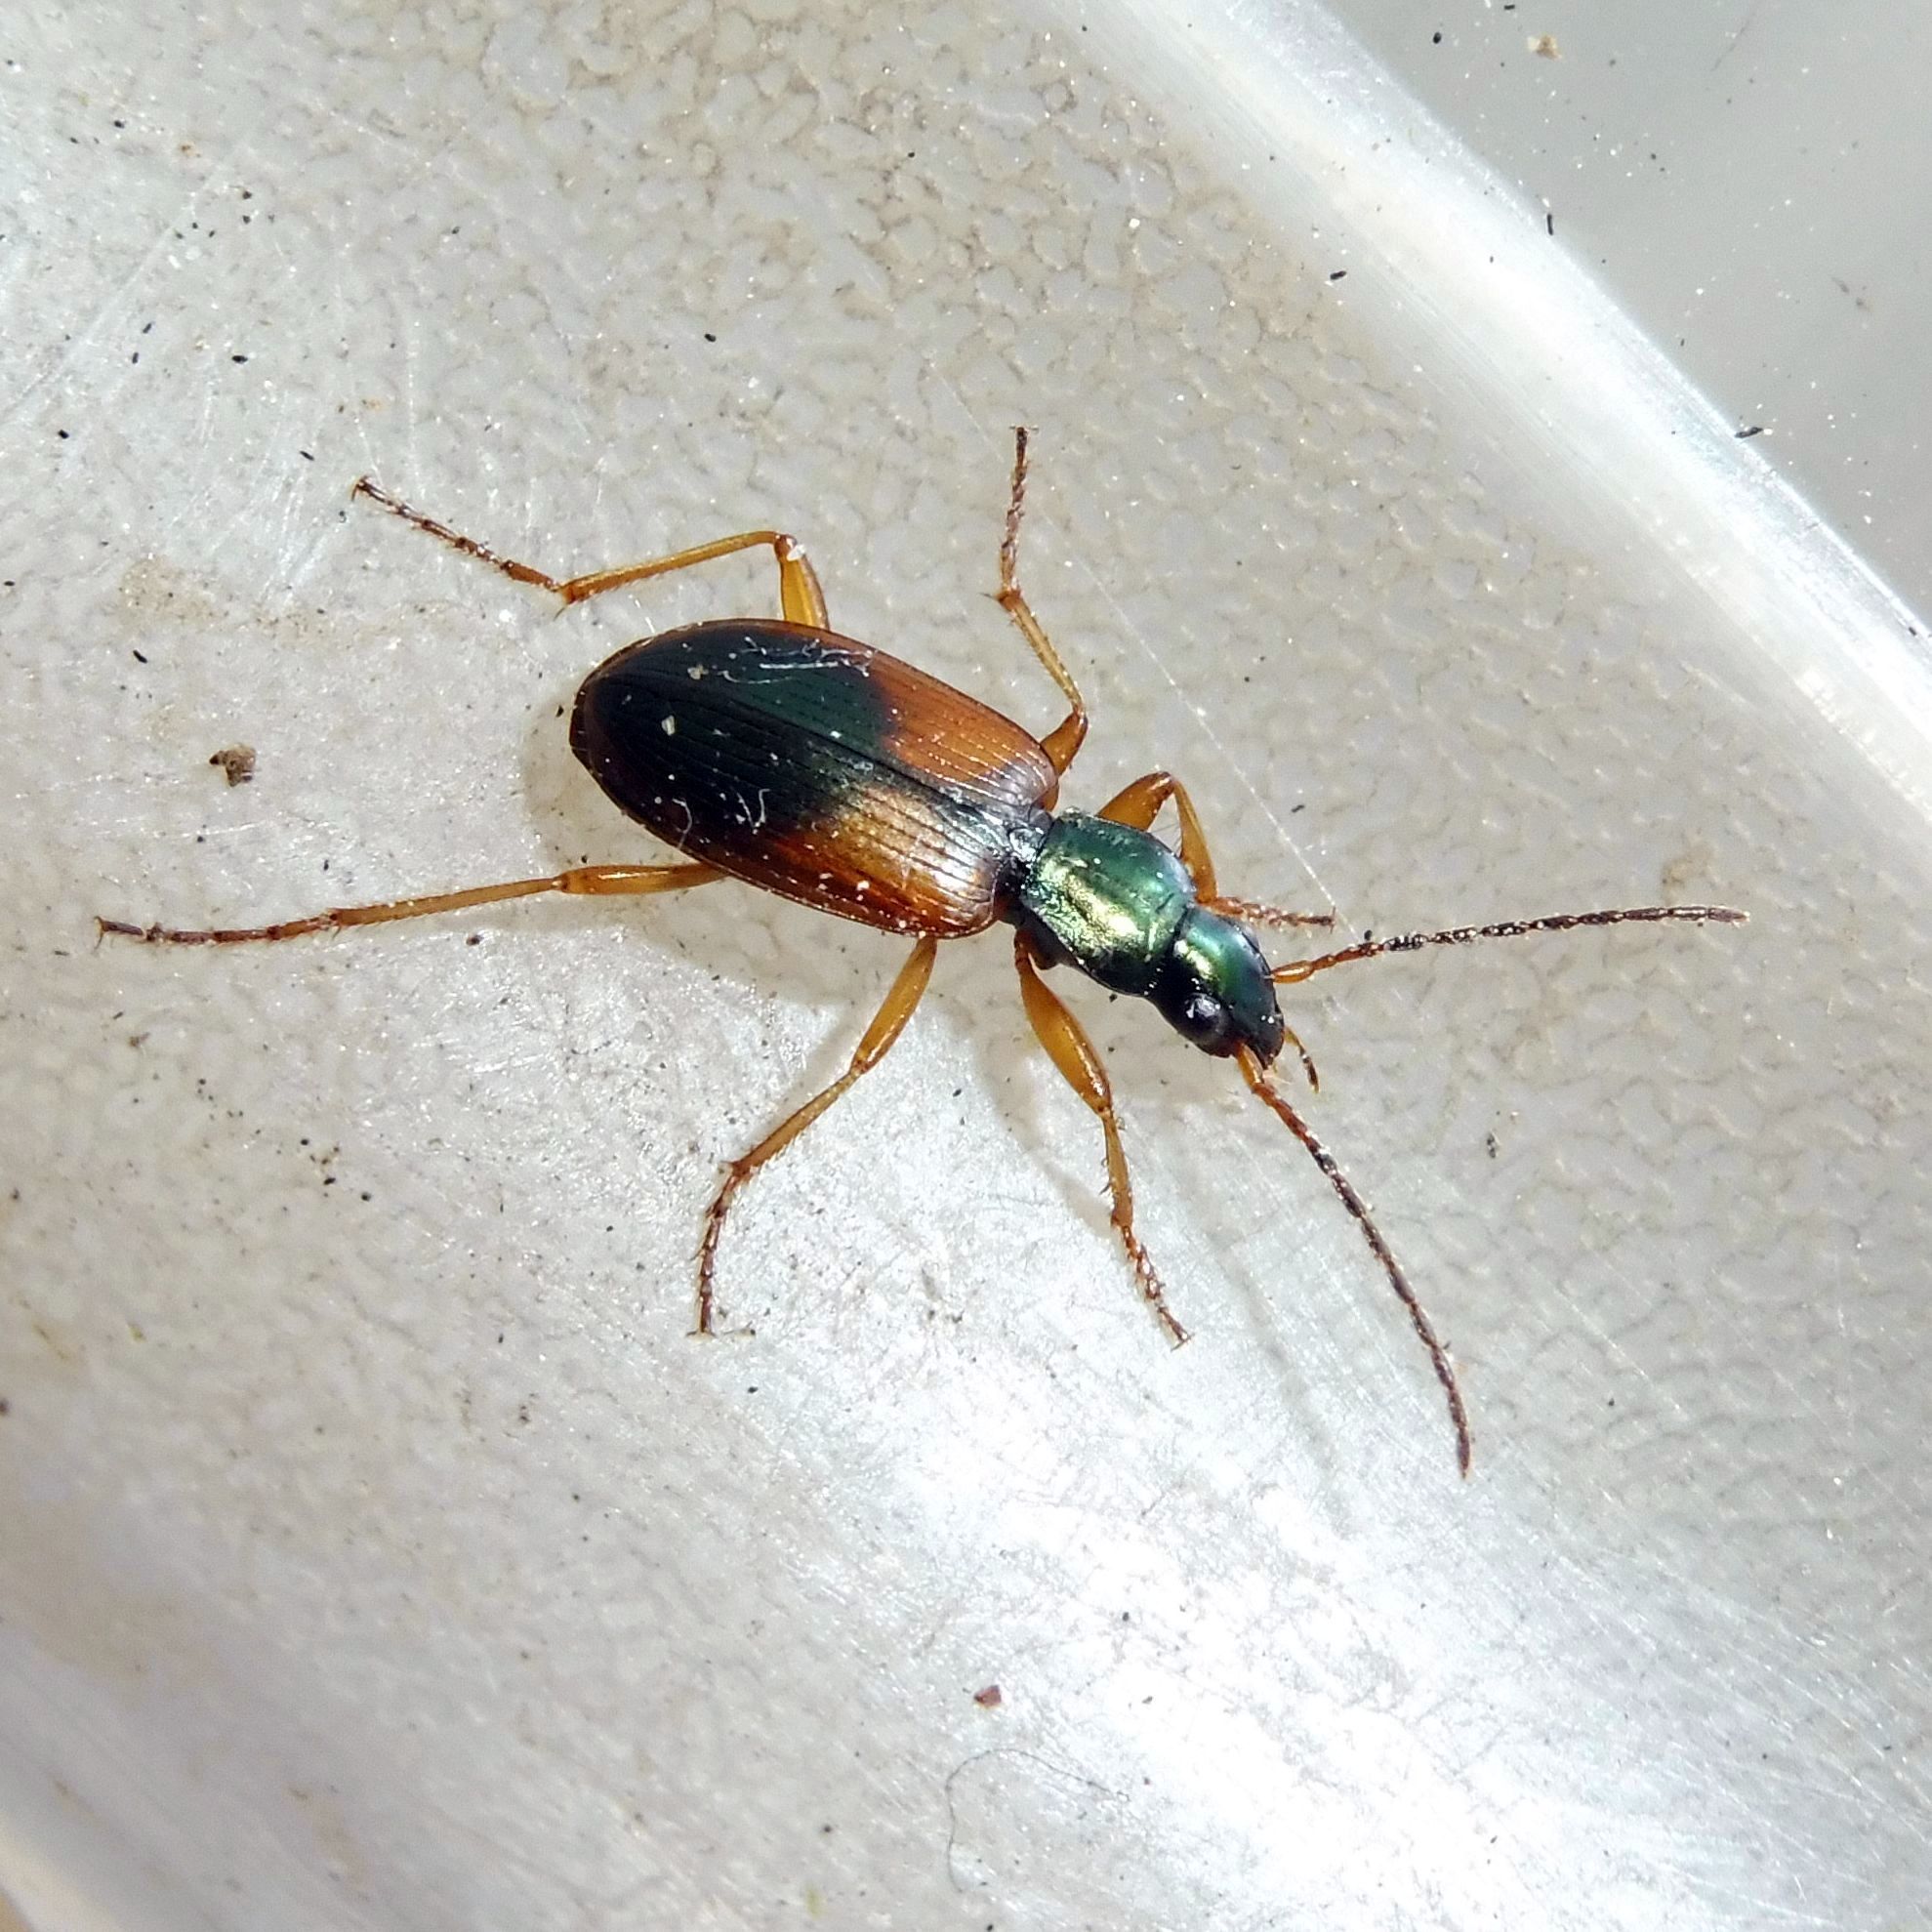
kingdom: Animalia
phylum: Arthropoda
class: Insecta
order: Coleoptera
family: Carabidae
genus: Anchomenus
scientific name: Anchomenus dorsalis
